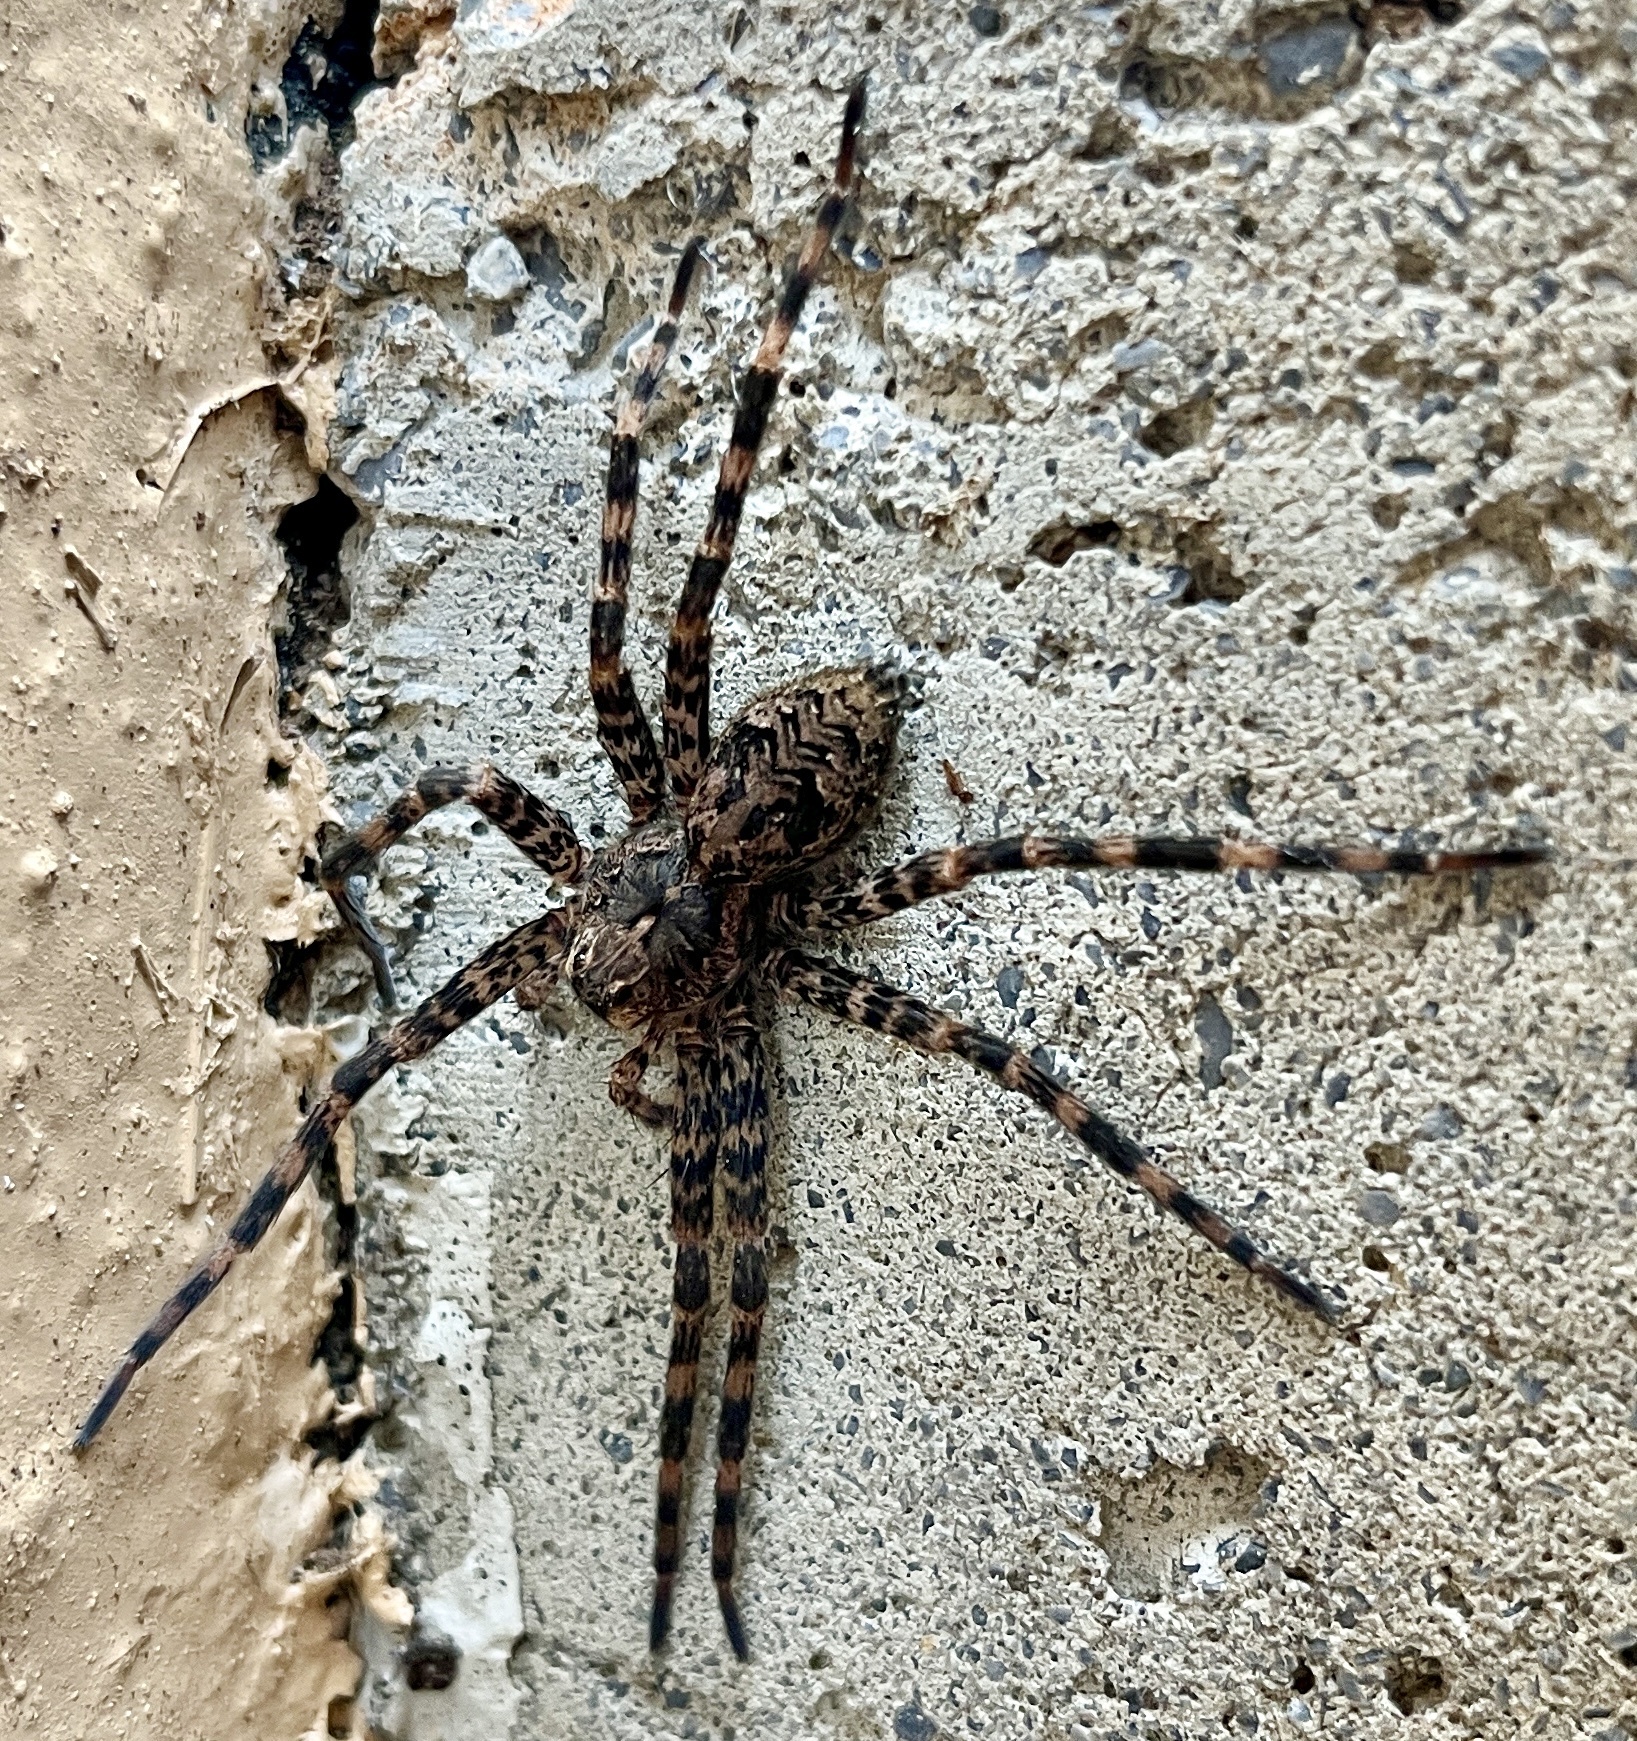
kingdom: Animalia
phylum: Arthropoda
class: Arachnida
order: Araneae
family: Pisauridae
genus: Dolomedes
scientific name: Dolomedes tenebrosus
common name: Dark fishing spider
